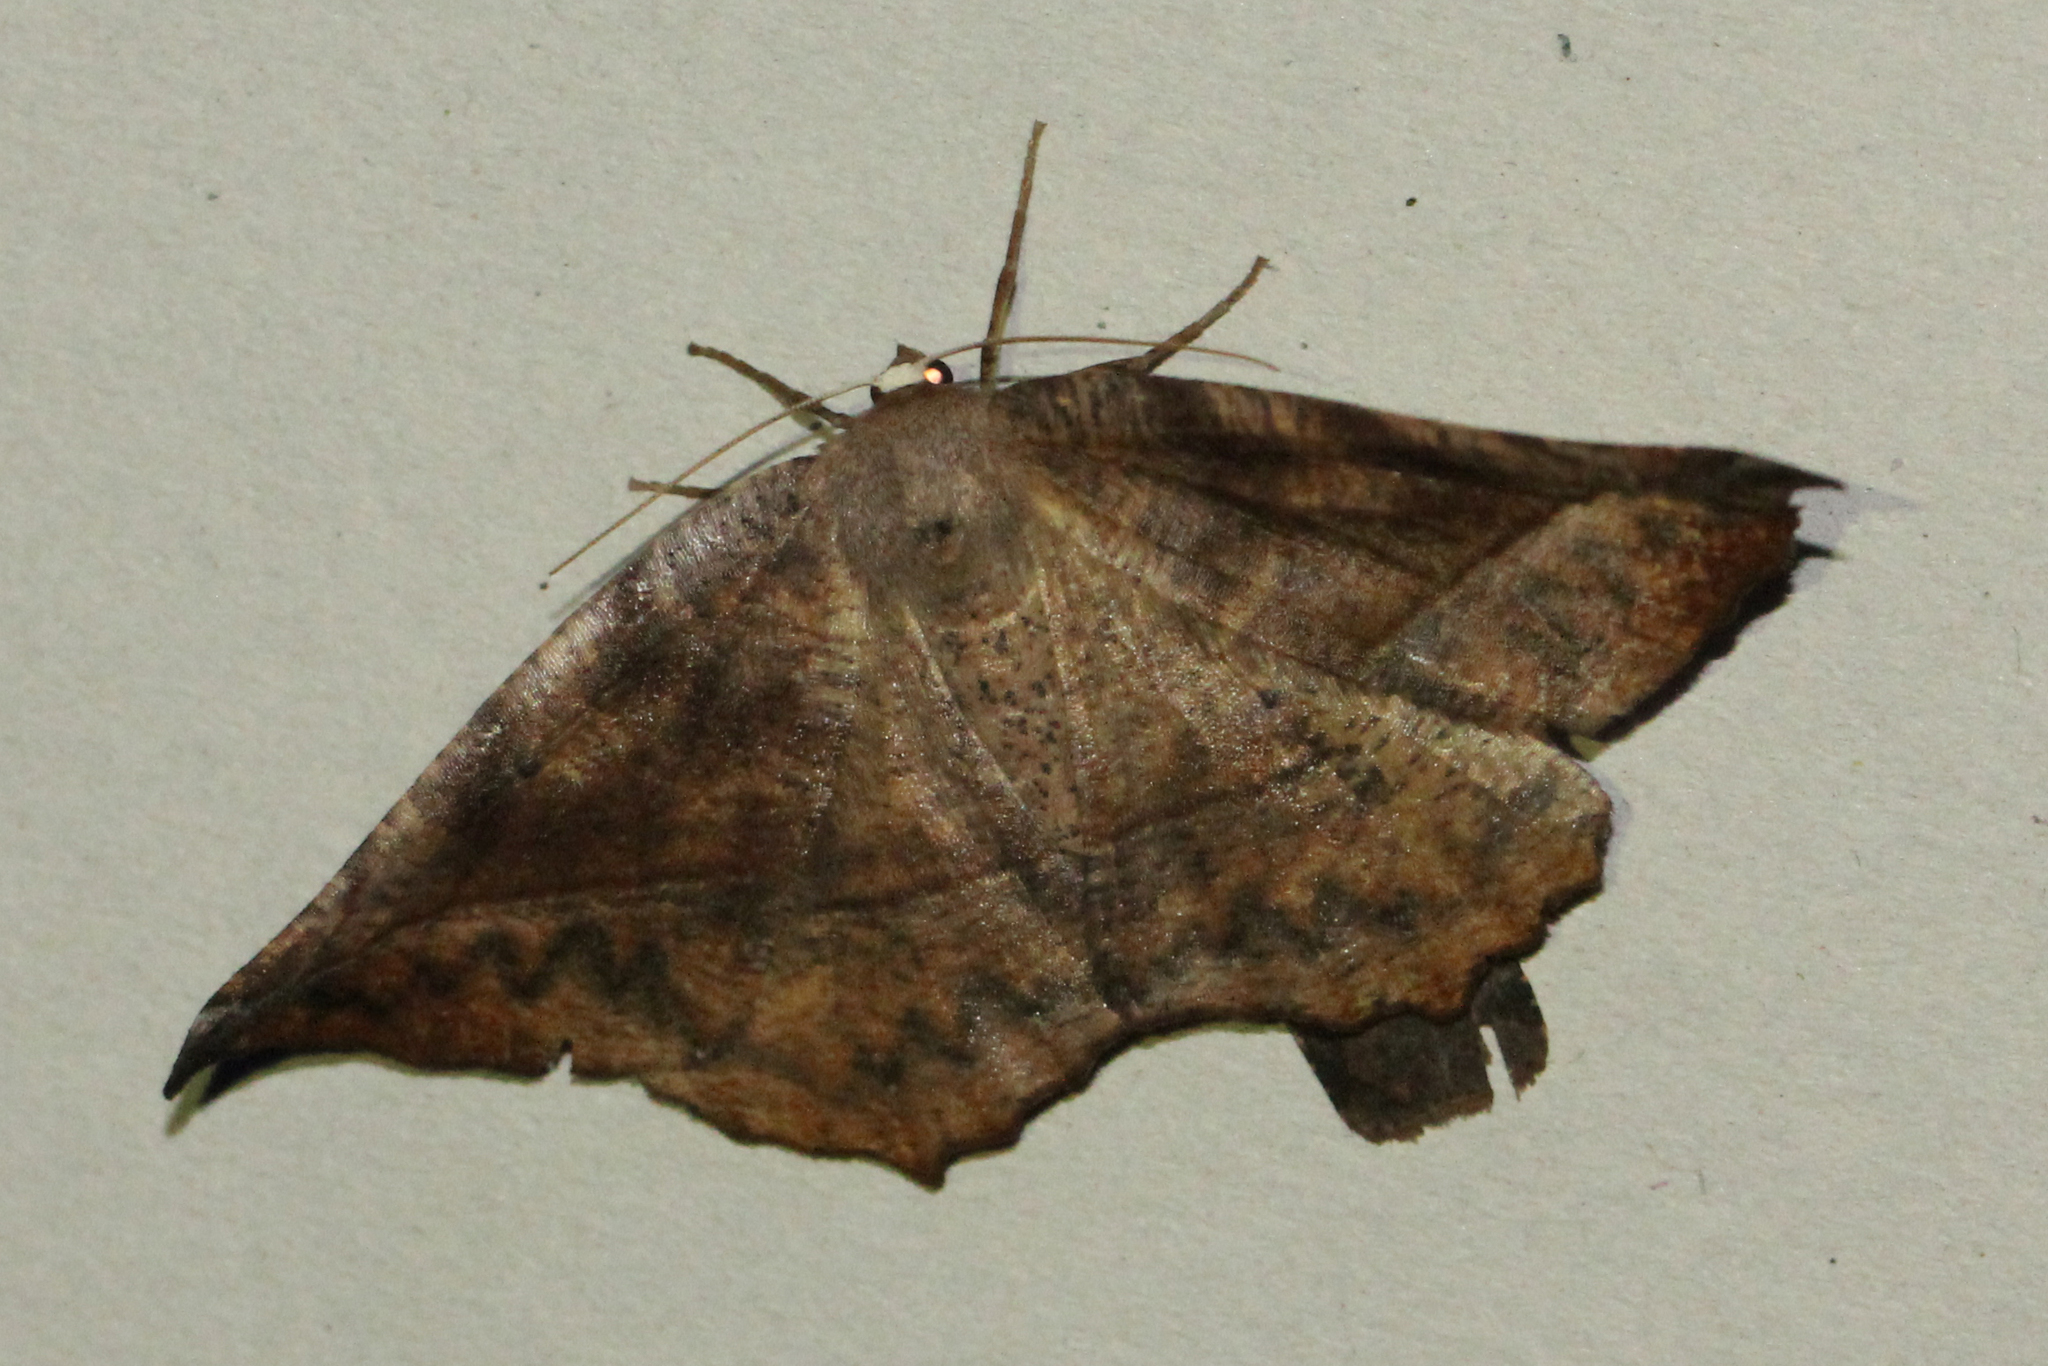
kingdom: Animalia
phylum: Arthropoda
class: Insecta
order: Lepidoptera
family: Geometridae
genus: Eutrapela
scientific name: Eutrapela clemataria
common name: Curved-toothed geometer
